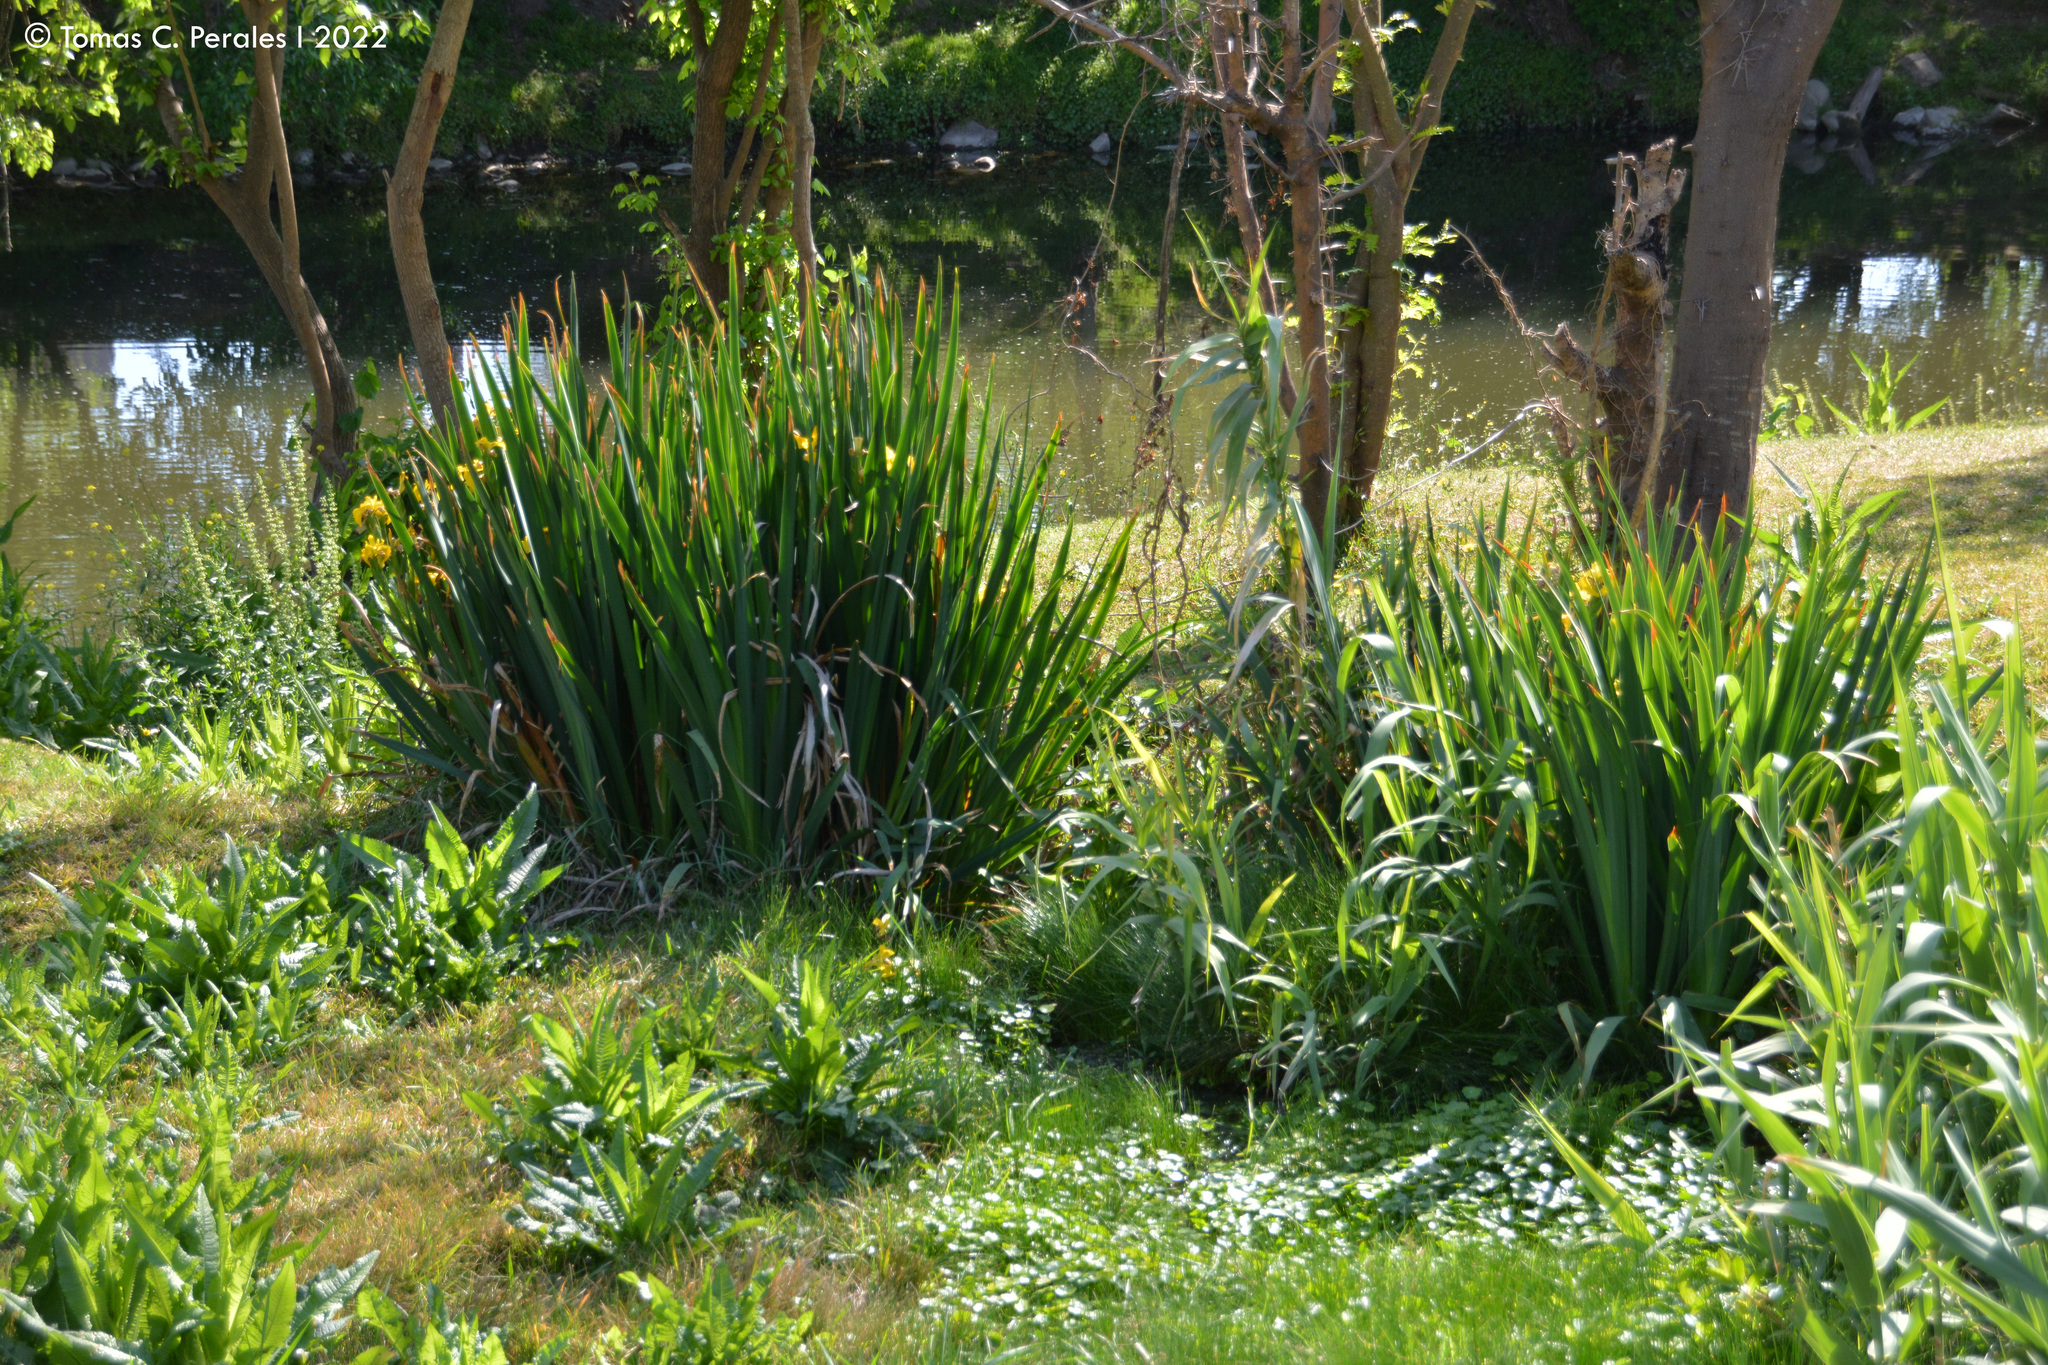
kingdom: Plantae
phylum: Tracheophyta
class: Liliopsida
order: Asparagales
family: Iridaceae
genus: Iris
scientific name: Iris pseudacorus
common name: Yellow flag
